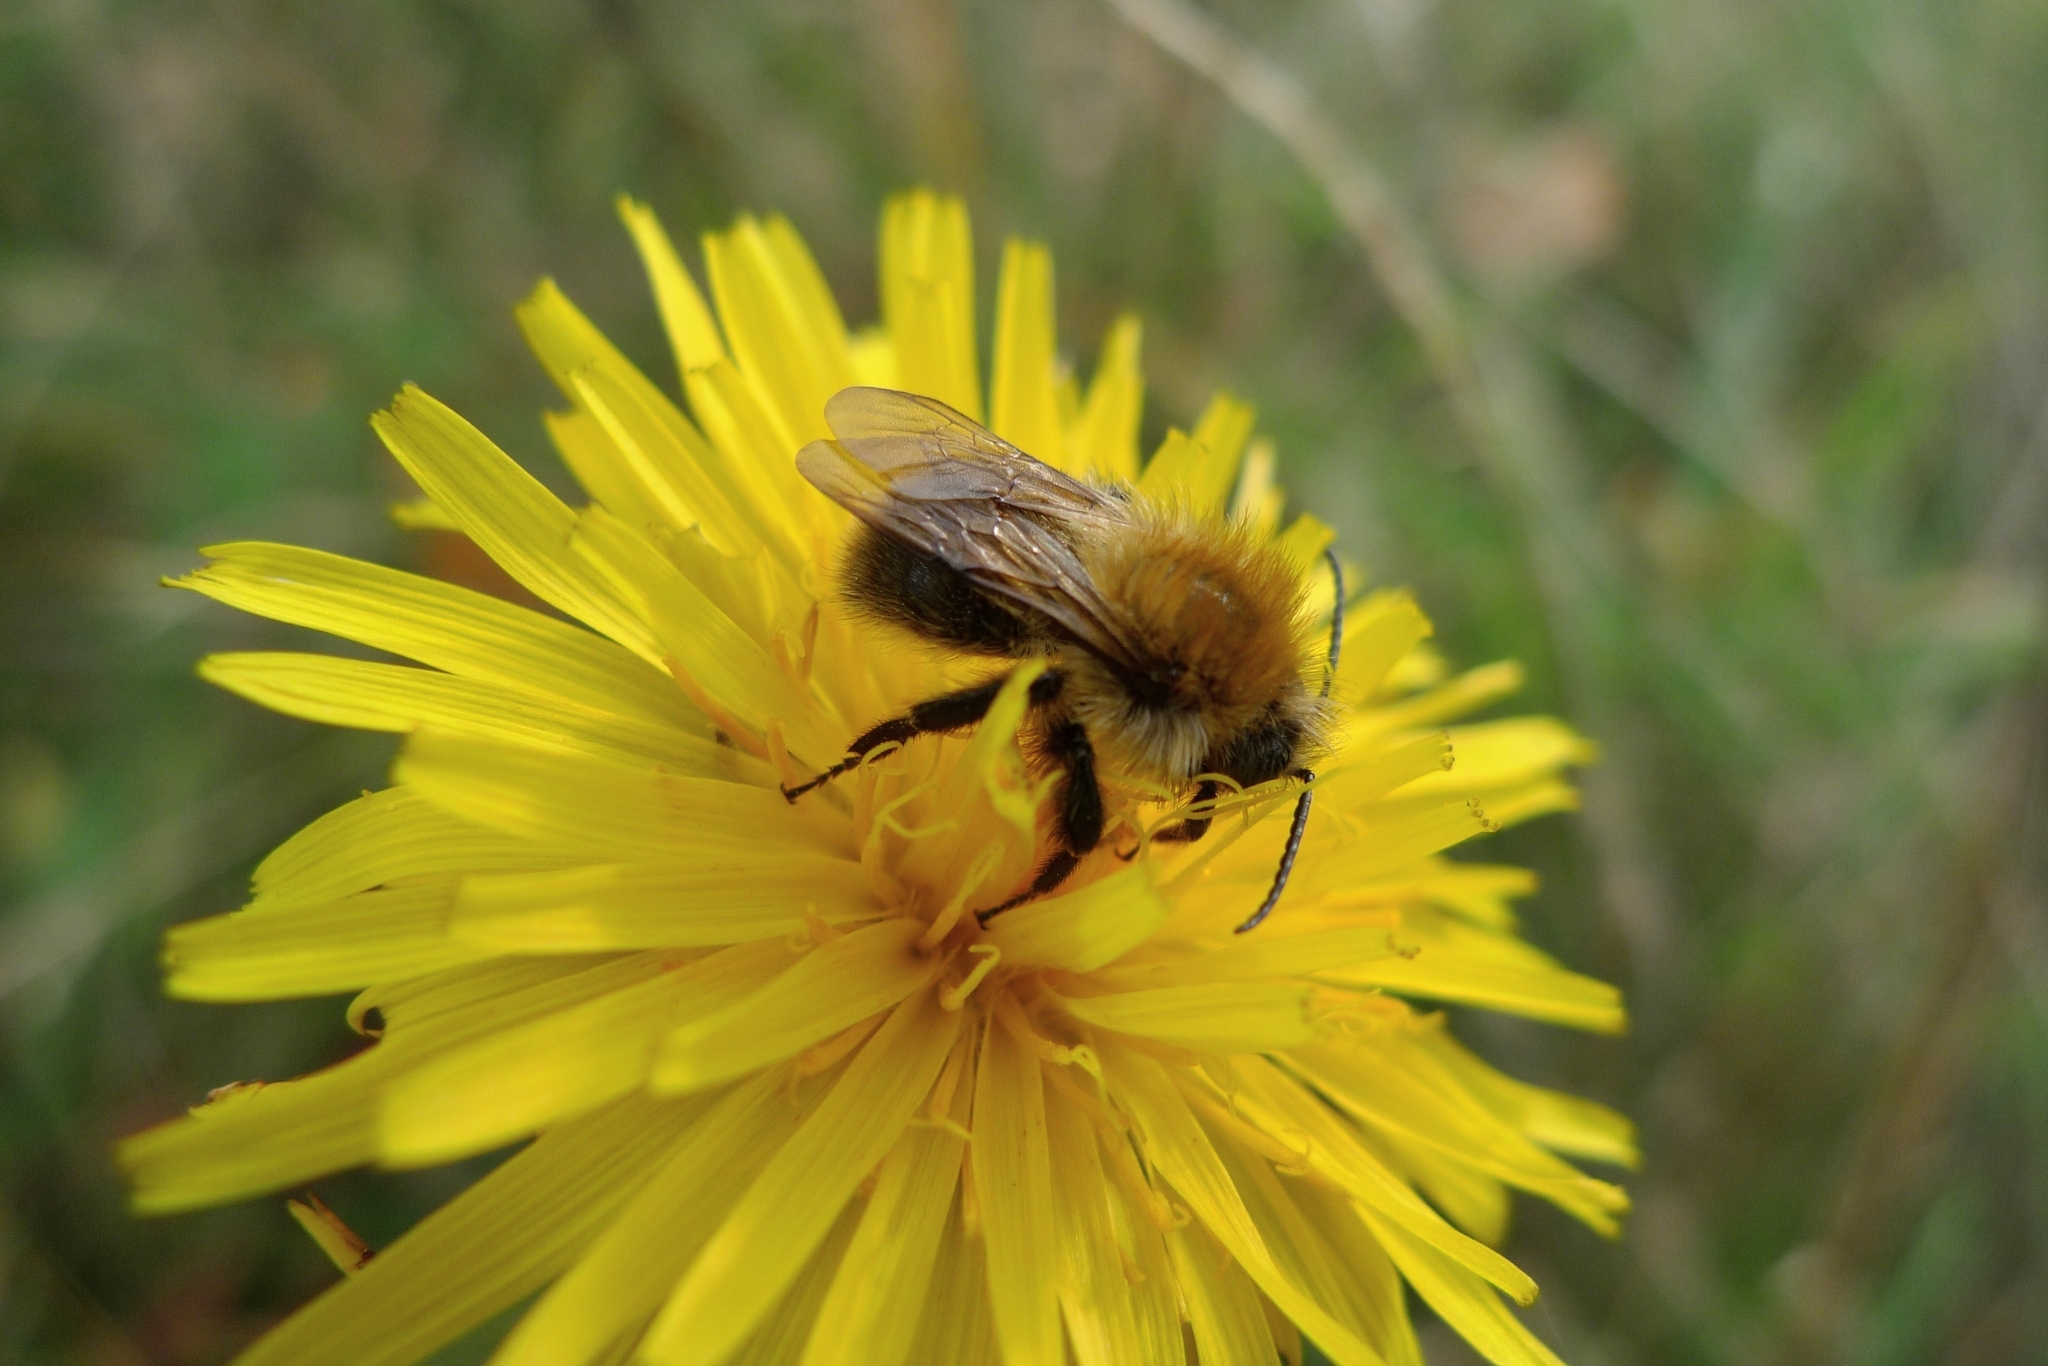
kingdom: Animalia
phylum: Arthropoda
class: Insecta
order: Hymenoptera
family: Apidae
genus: Bombus
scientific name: Bombus pascuorum
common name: Common carder bee
